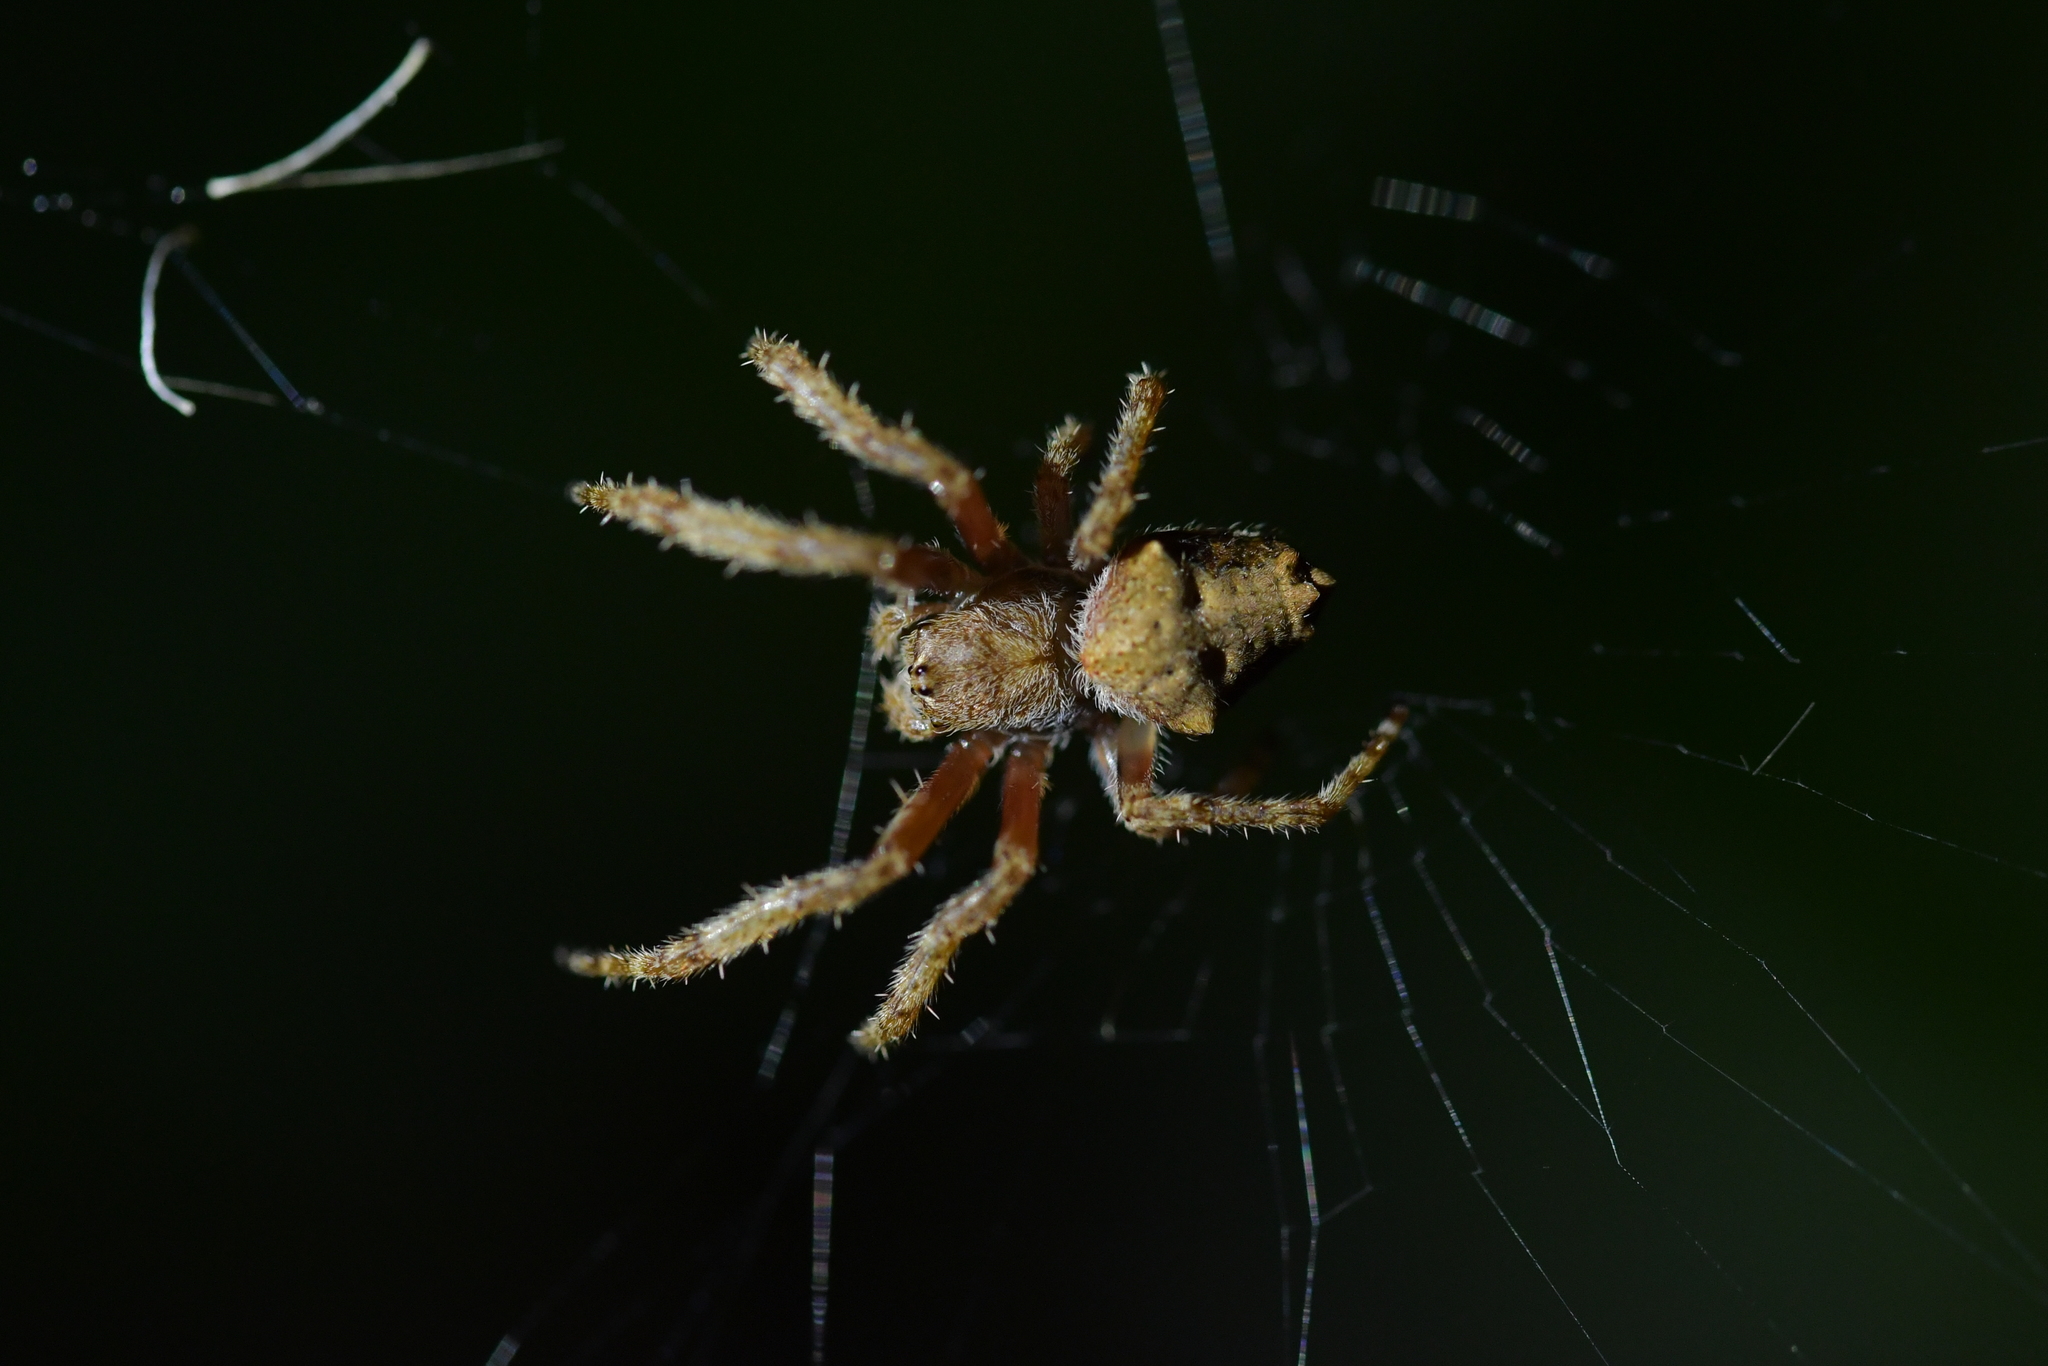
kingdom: Animalia
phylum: Arthropoda
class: Arachnida
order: Araneae
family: Araneidae
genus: Eriophora
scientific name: Eriophora pustulosa
